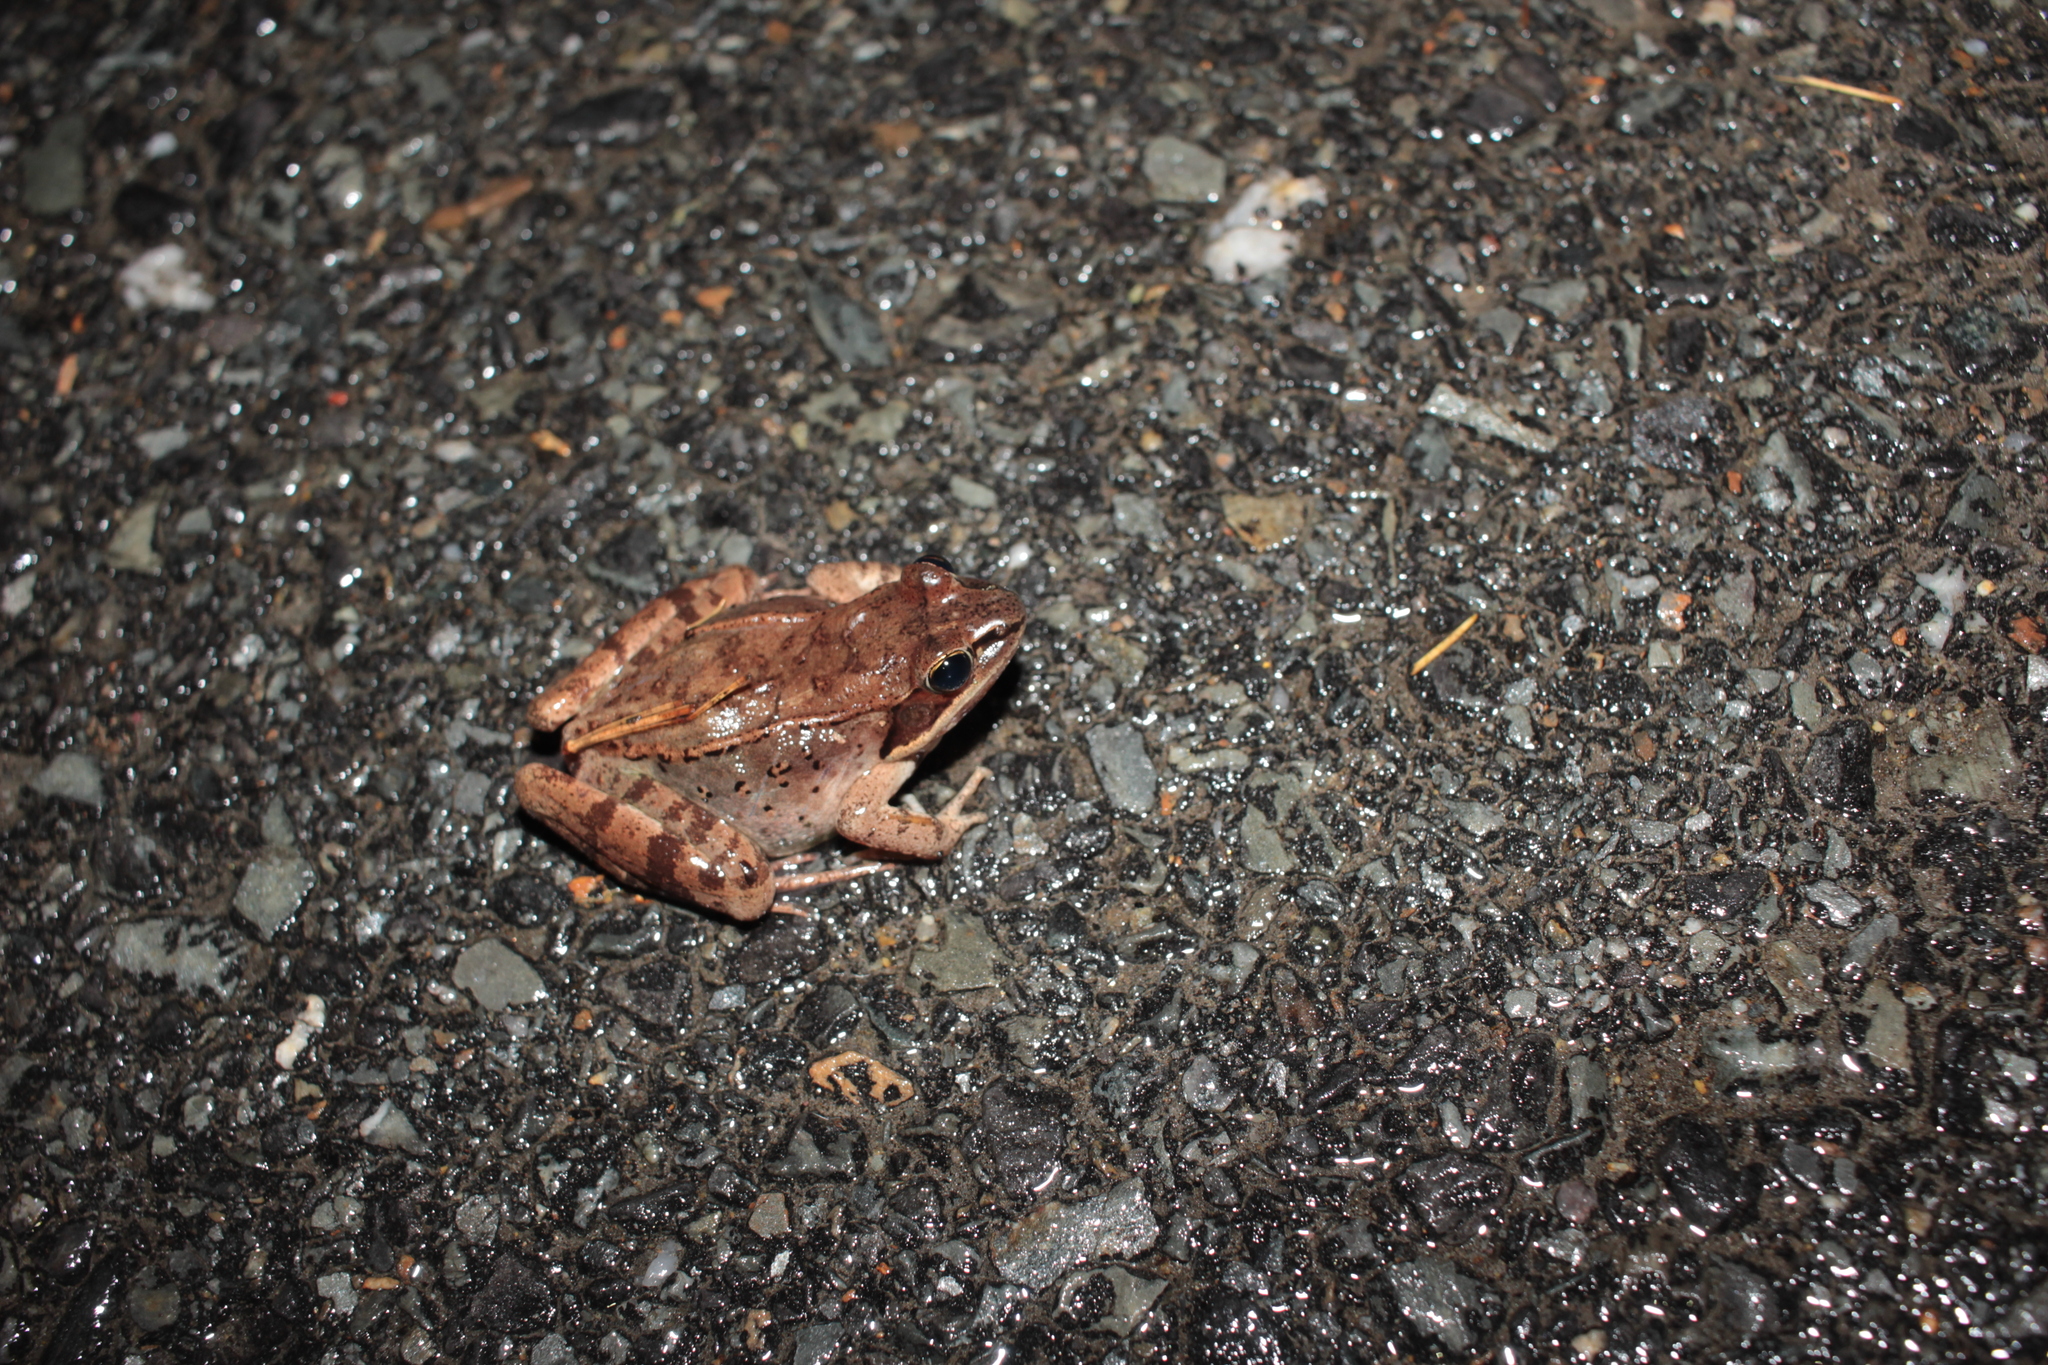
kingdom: Animalia
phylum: Chordata
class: Amphibia
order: Anura
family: Ranidae
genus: Lithobates
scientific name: Lithobates sylvaticus
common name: Wood frog
